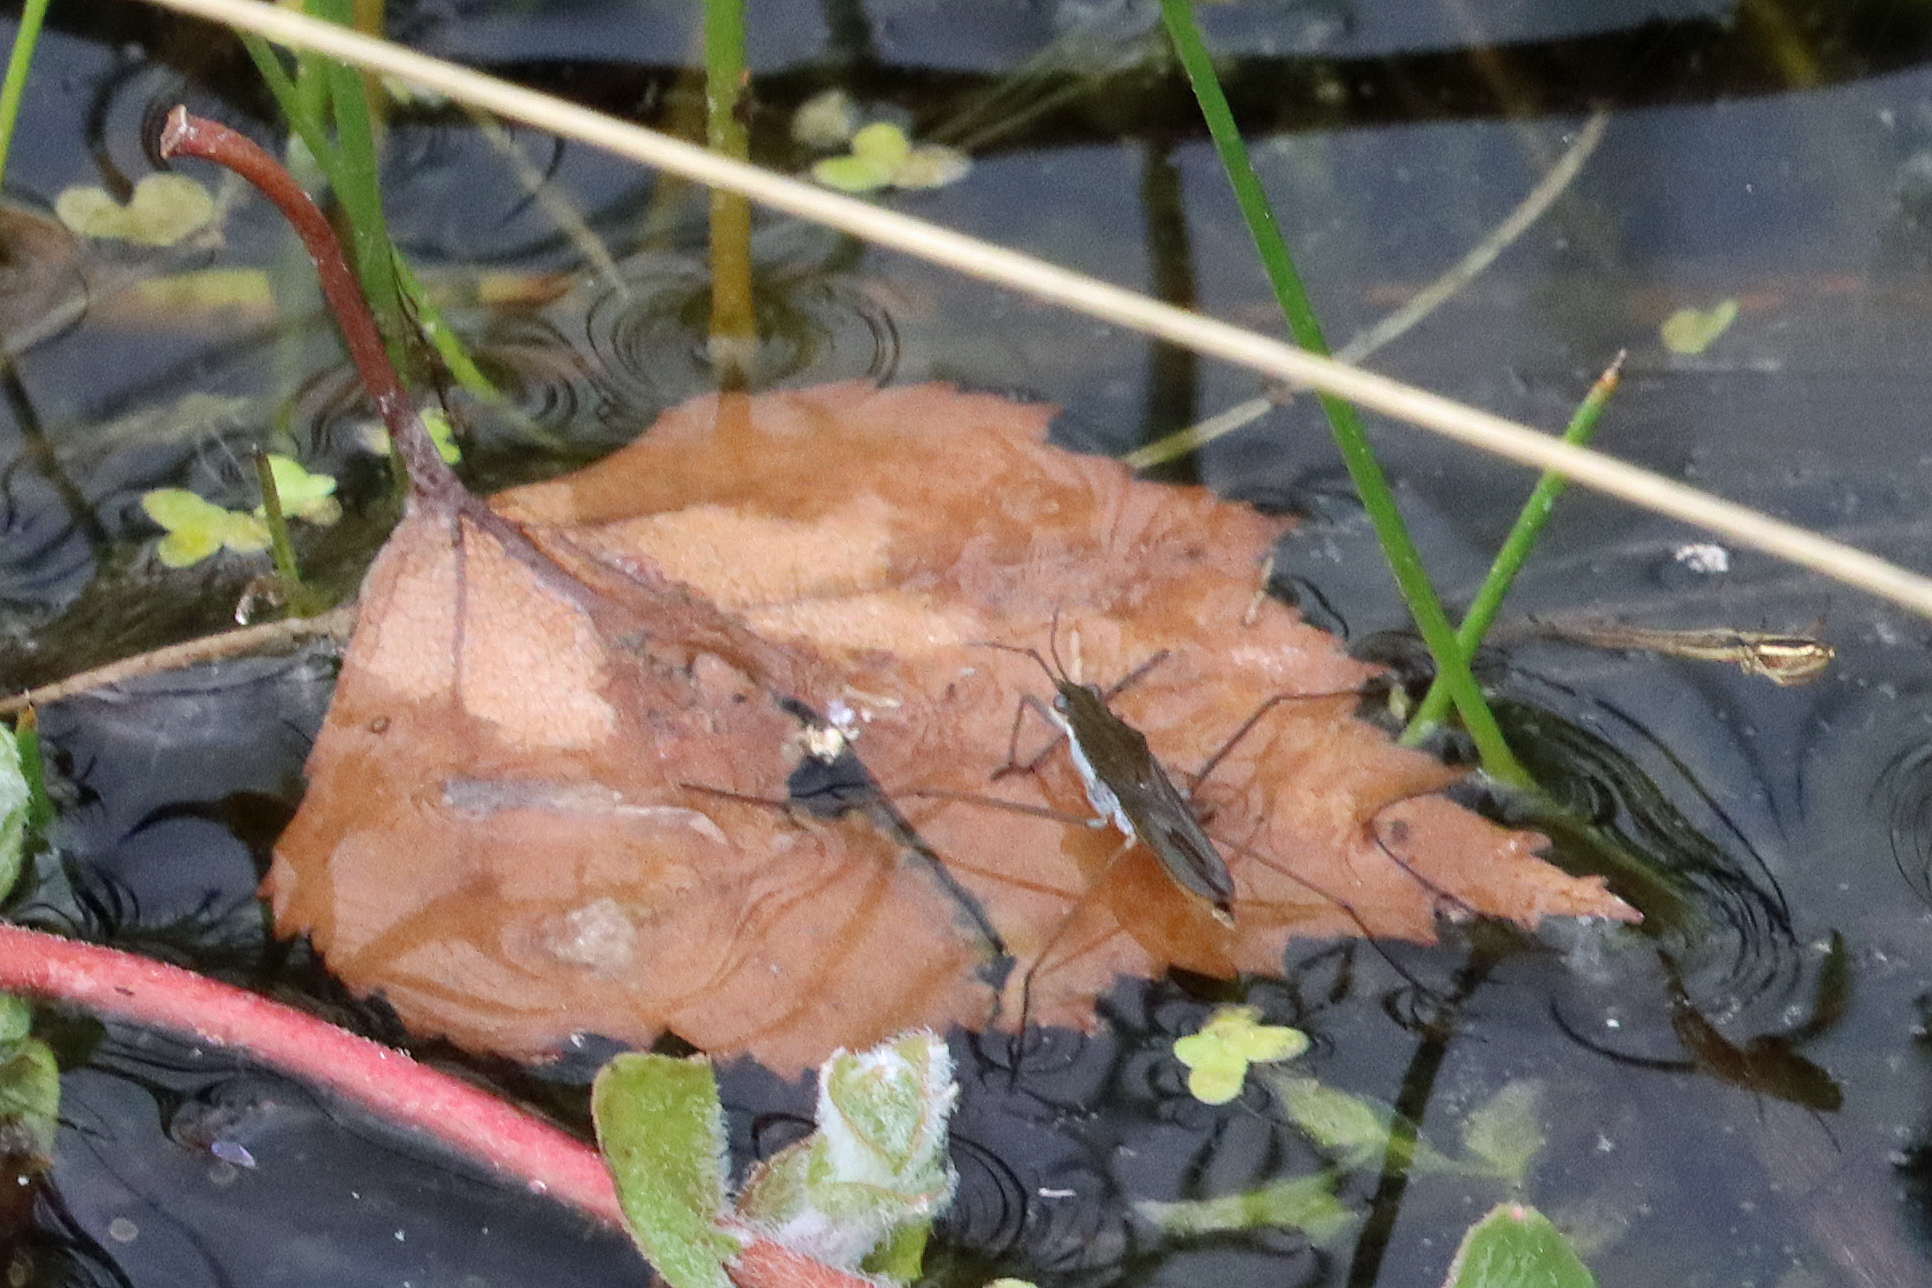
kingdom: Animalia
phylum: Arthropoda
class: Insecta
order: Hemiptera
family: Gerridae
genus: Gerris
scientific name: Gerris
